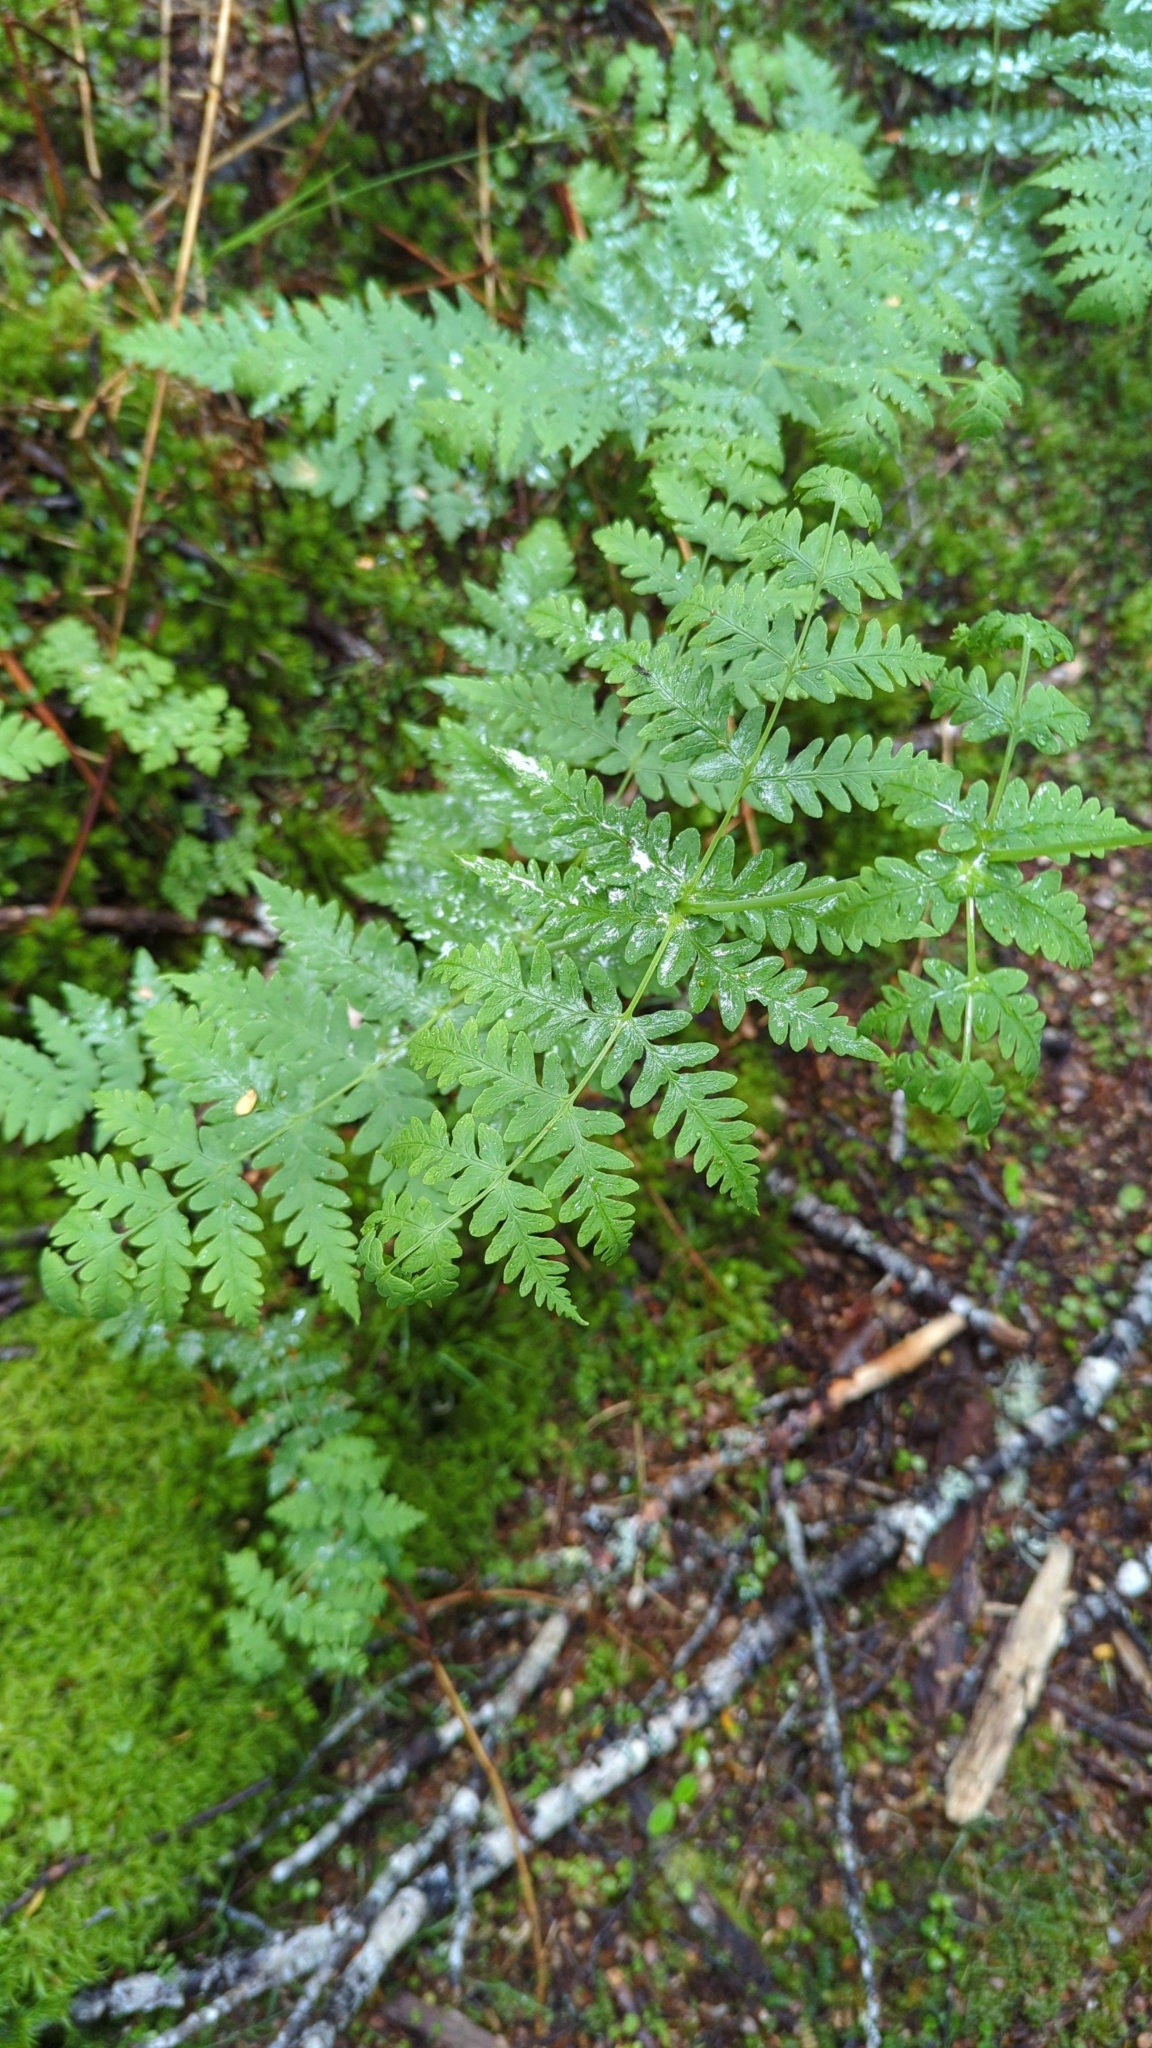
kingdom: Plantae
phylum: Tracheophyta
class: Polypodiopsida
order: Polypodiales
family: Dennstaedtiaceae
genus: Histiopteris
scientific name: Histiopteris incisa
